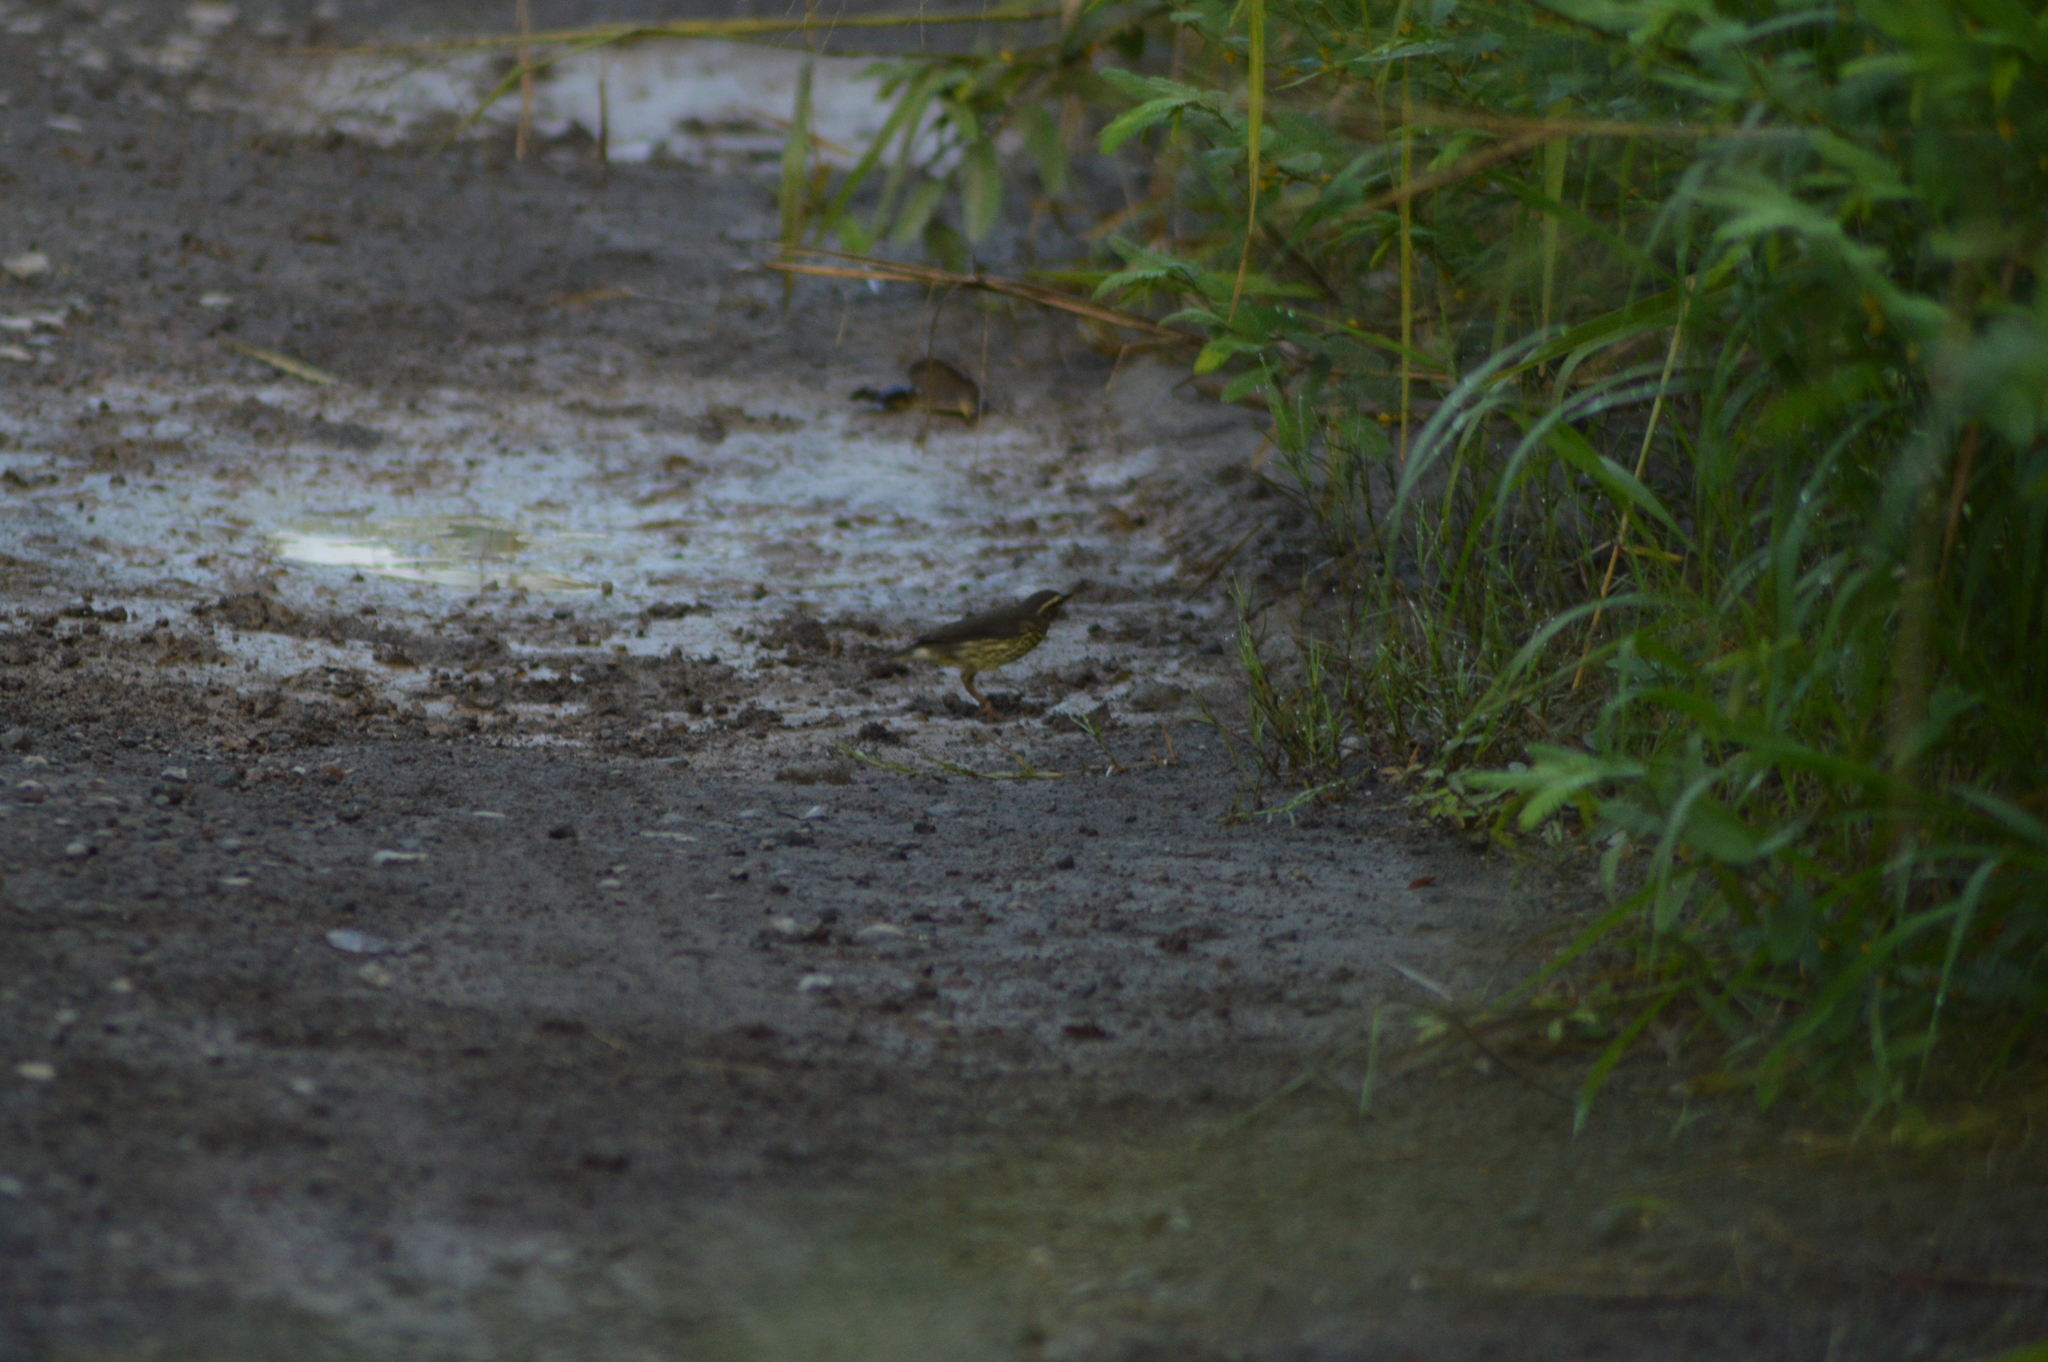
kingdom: Animalia
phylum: Chordata
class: Aves
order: Passeriformes
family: Parulidae
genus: Parkesia
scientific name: Parkesia noveboracensis
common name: Northern waterthrush
